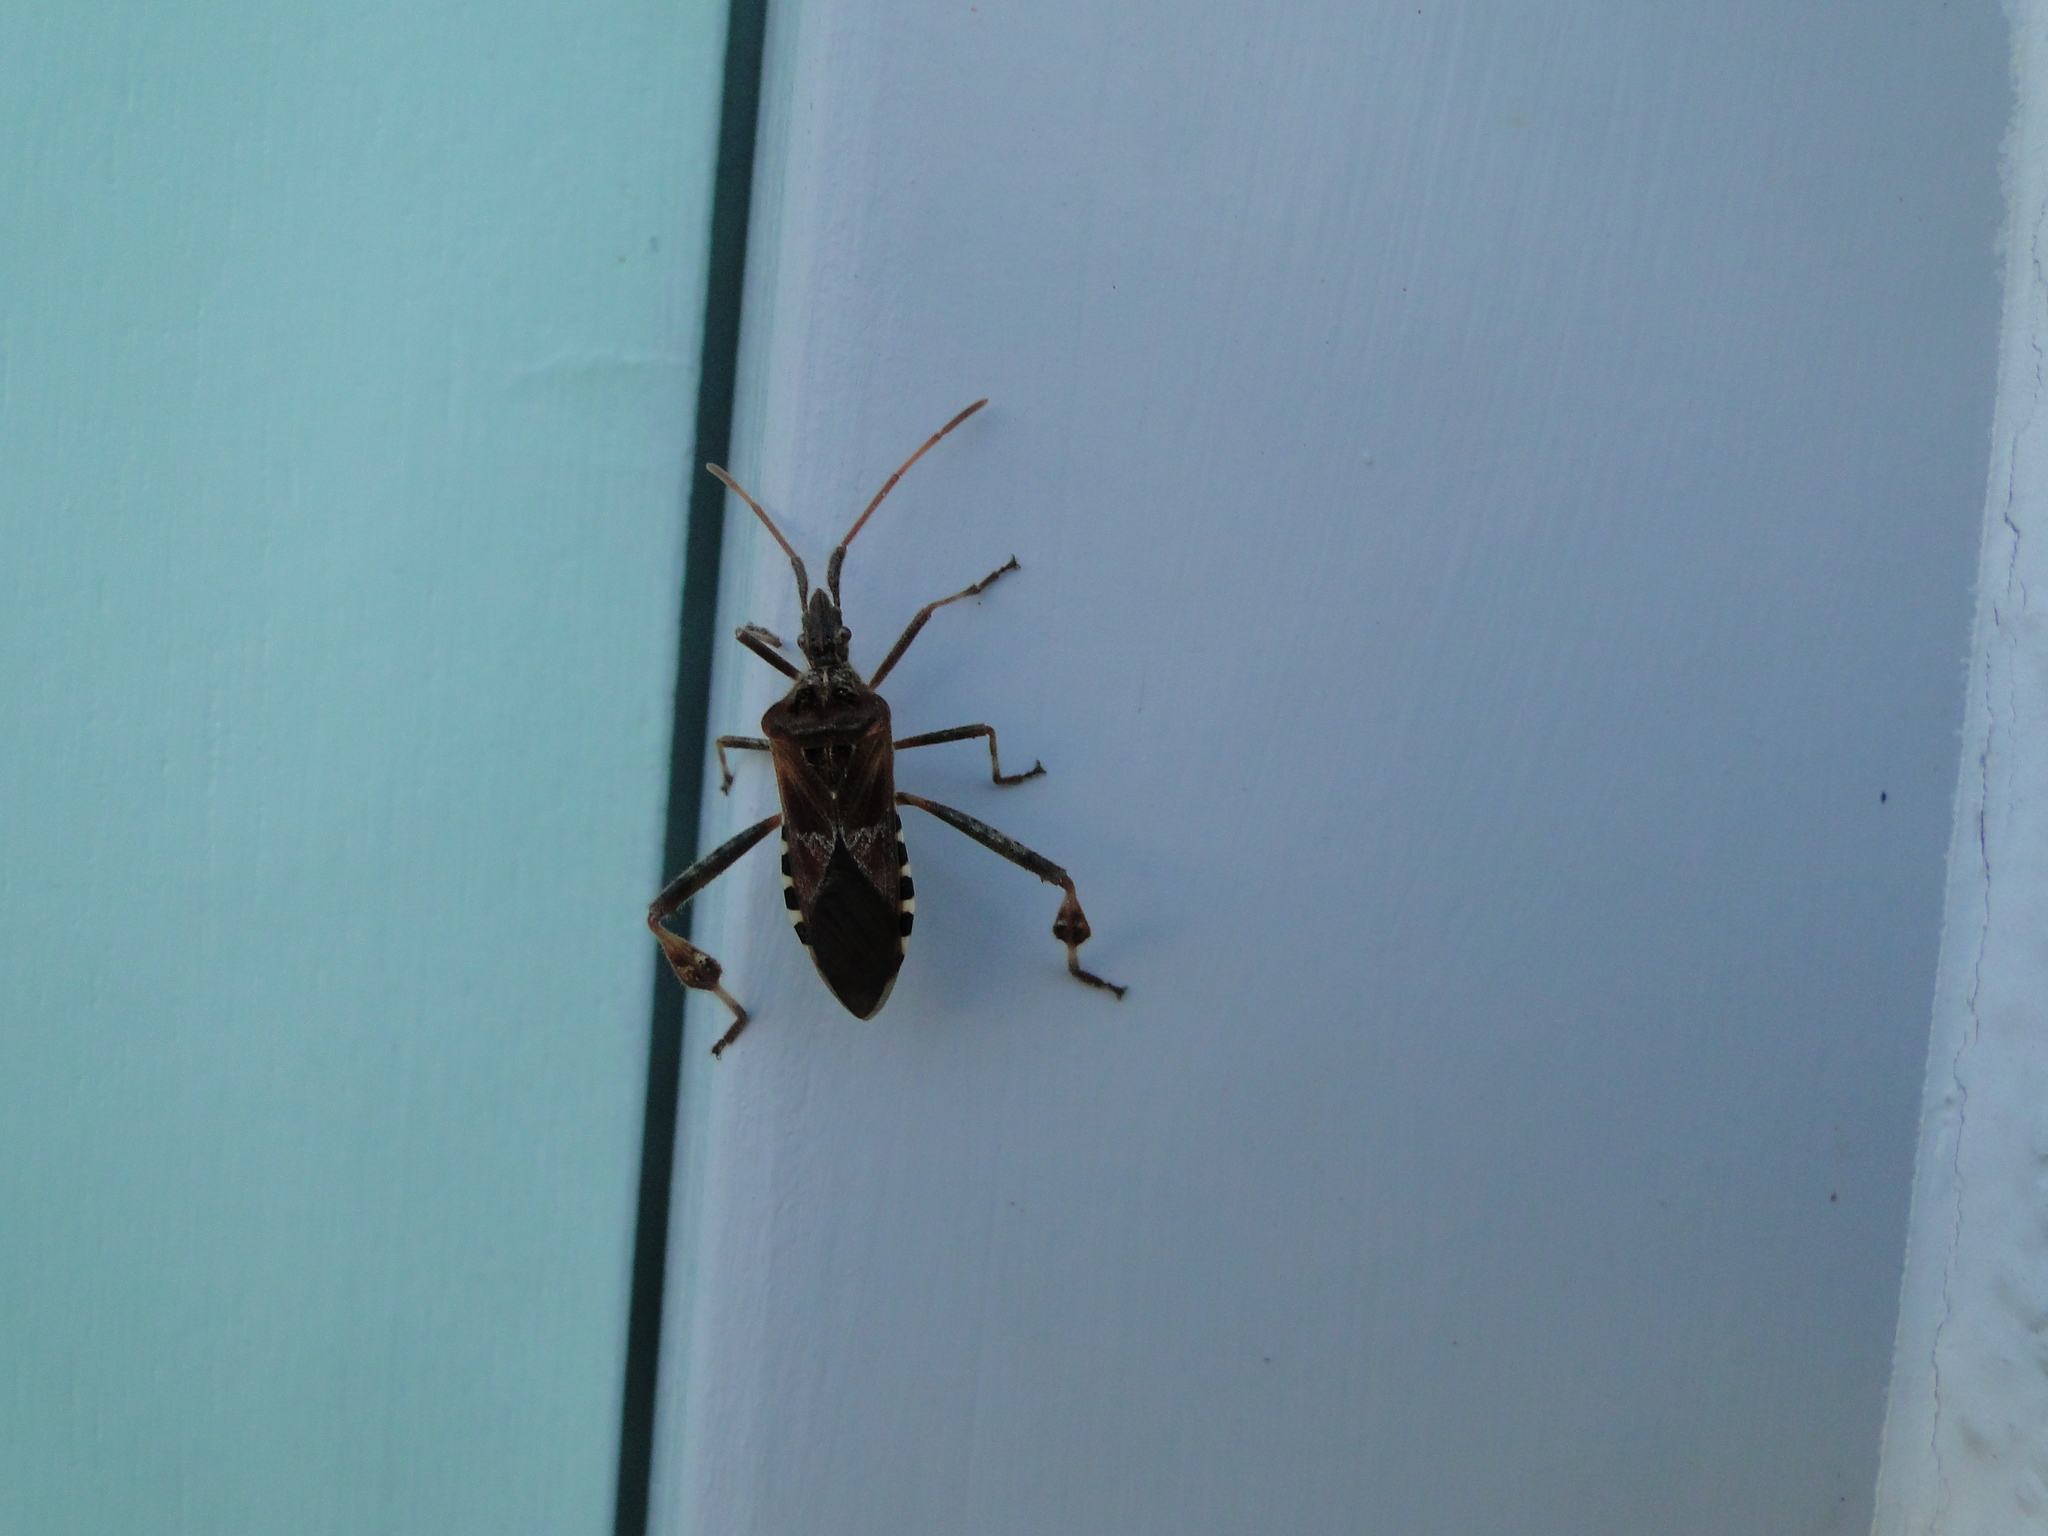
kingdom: Animalia
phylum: Arthropoda
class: Insecta
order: Hemiptera
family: Coreidae
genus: Leptoglossus
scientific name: Leptoglossus occidentalis
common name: Western conifer-seed bug
